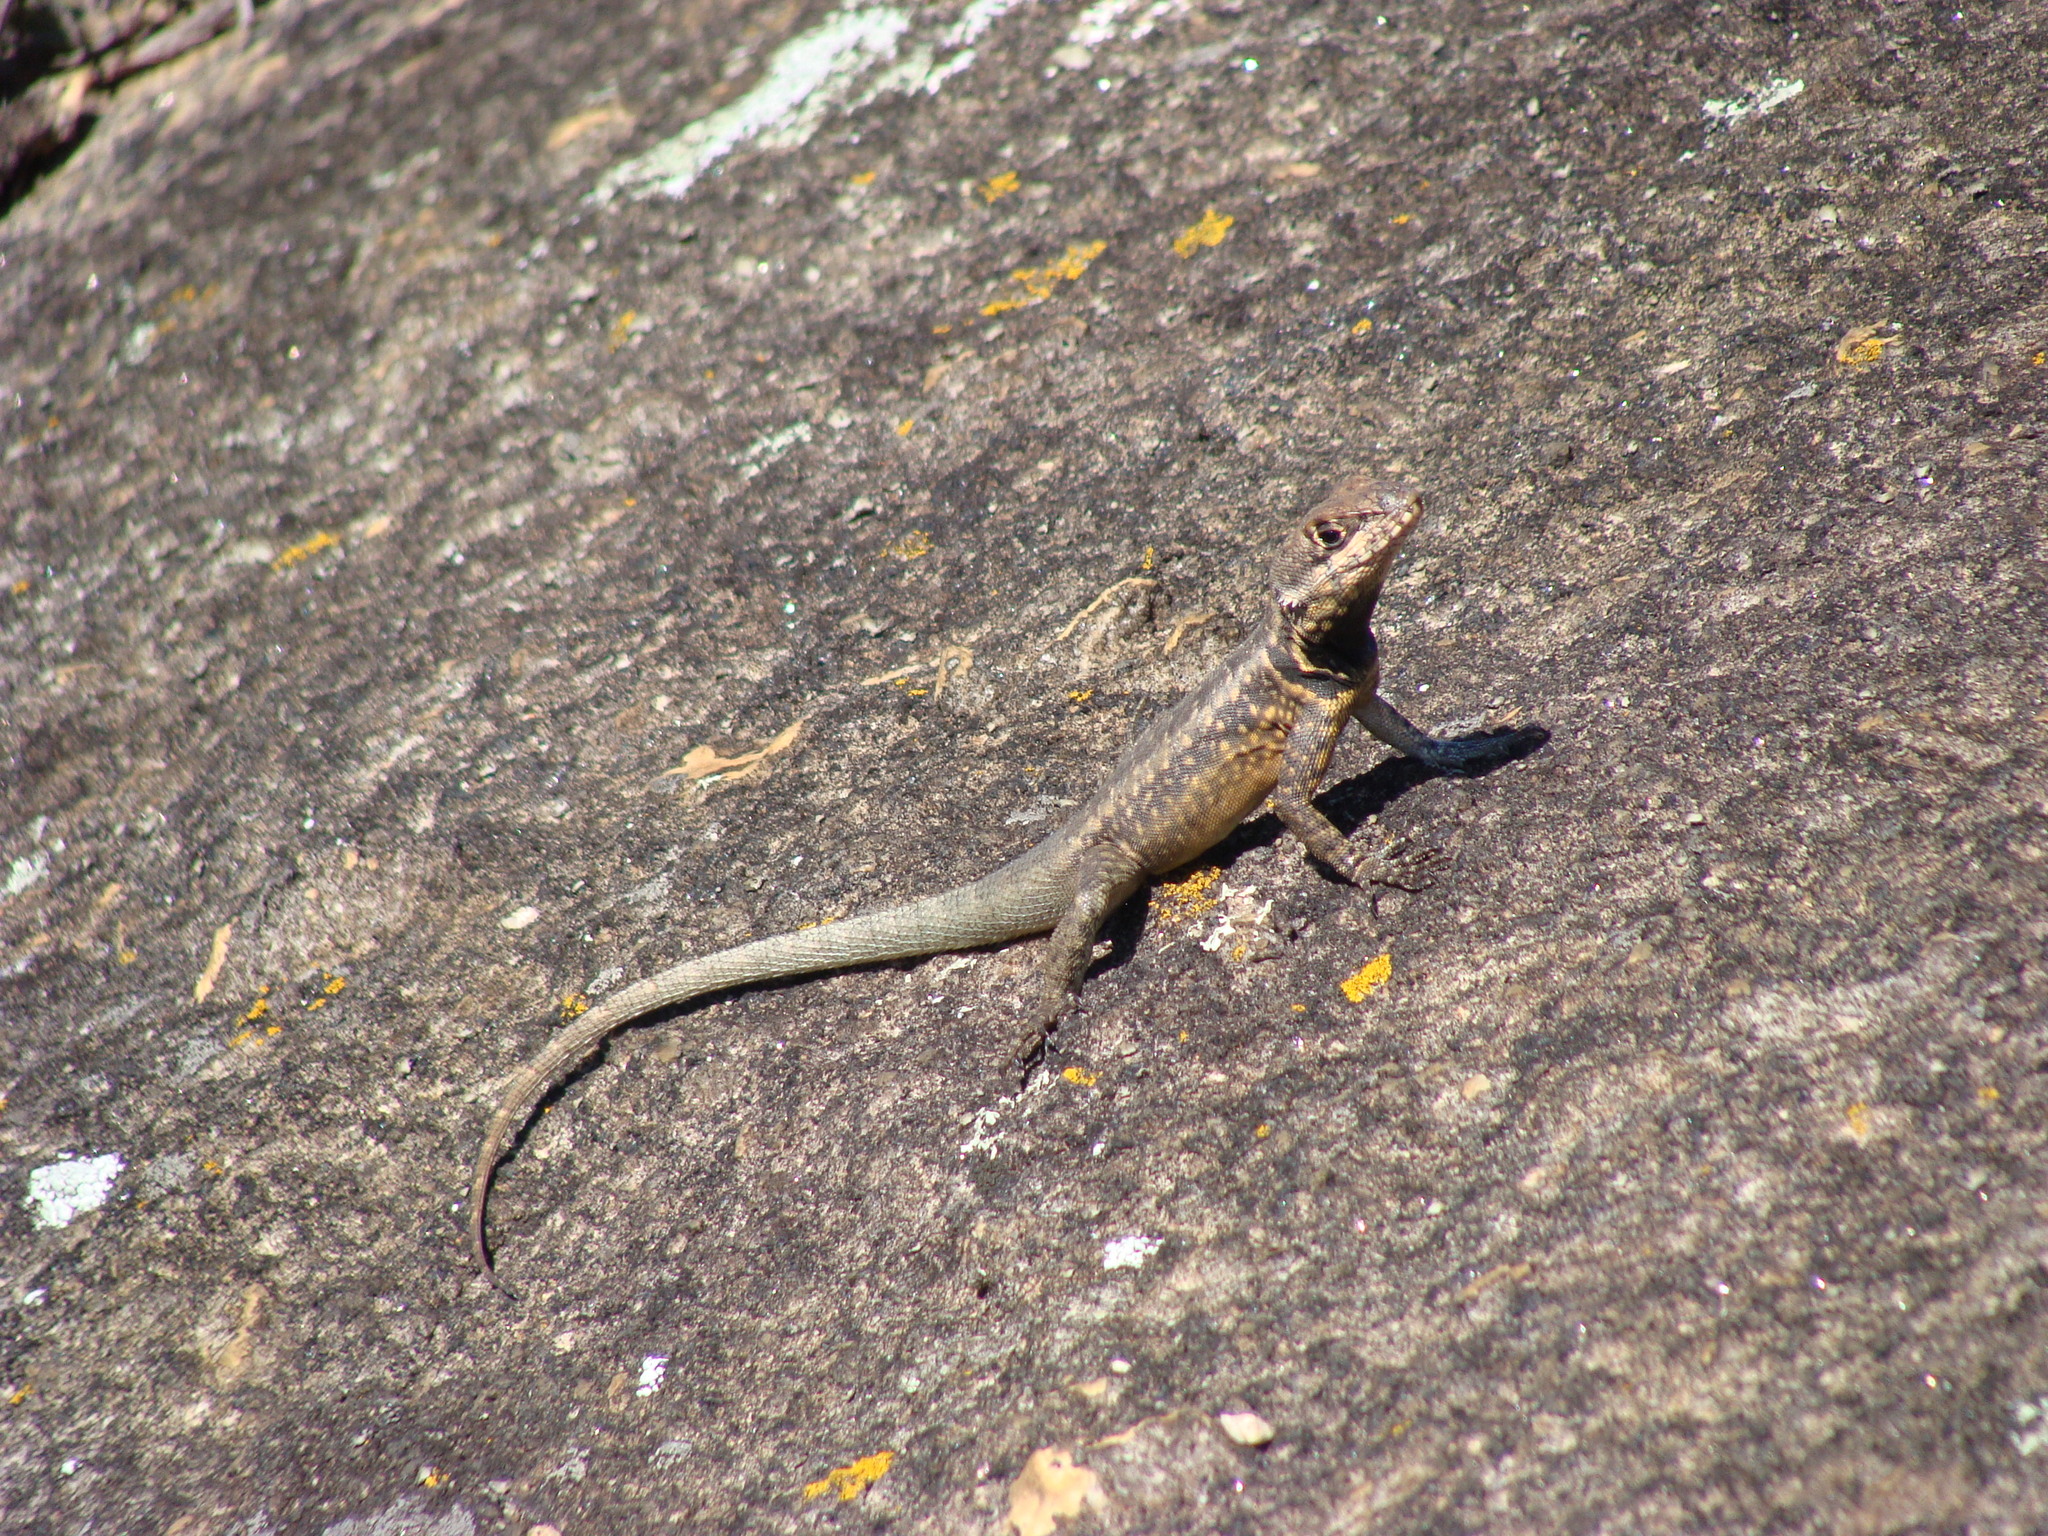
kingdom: Animalia
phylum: Chordata
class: Squamata
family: Tropiduridae
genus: Tropidurus
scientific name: Tropidurus torquatus
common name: Amazon lava lizard
